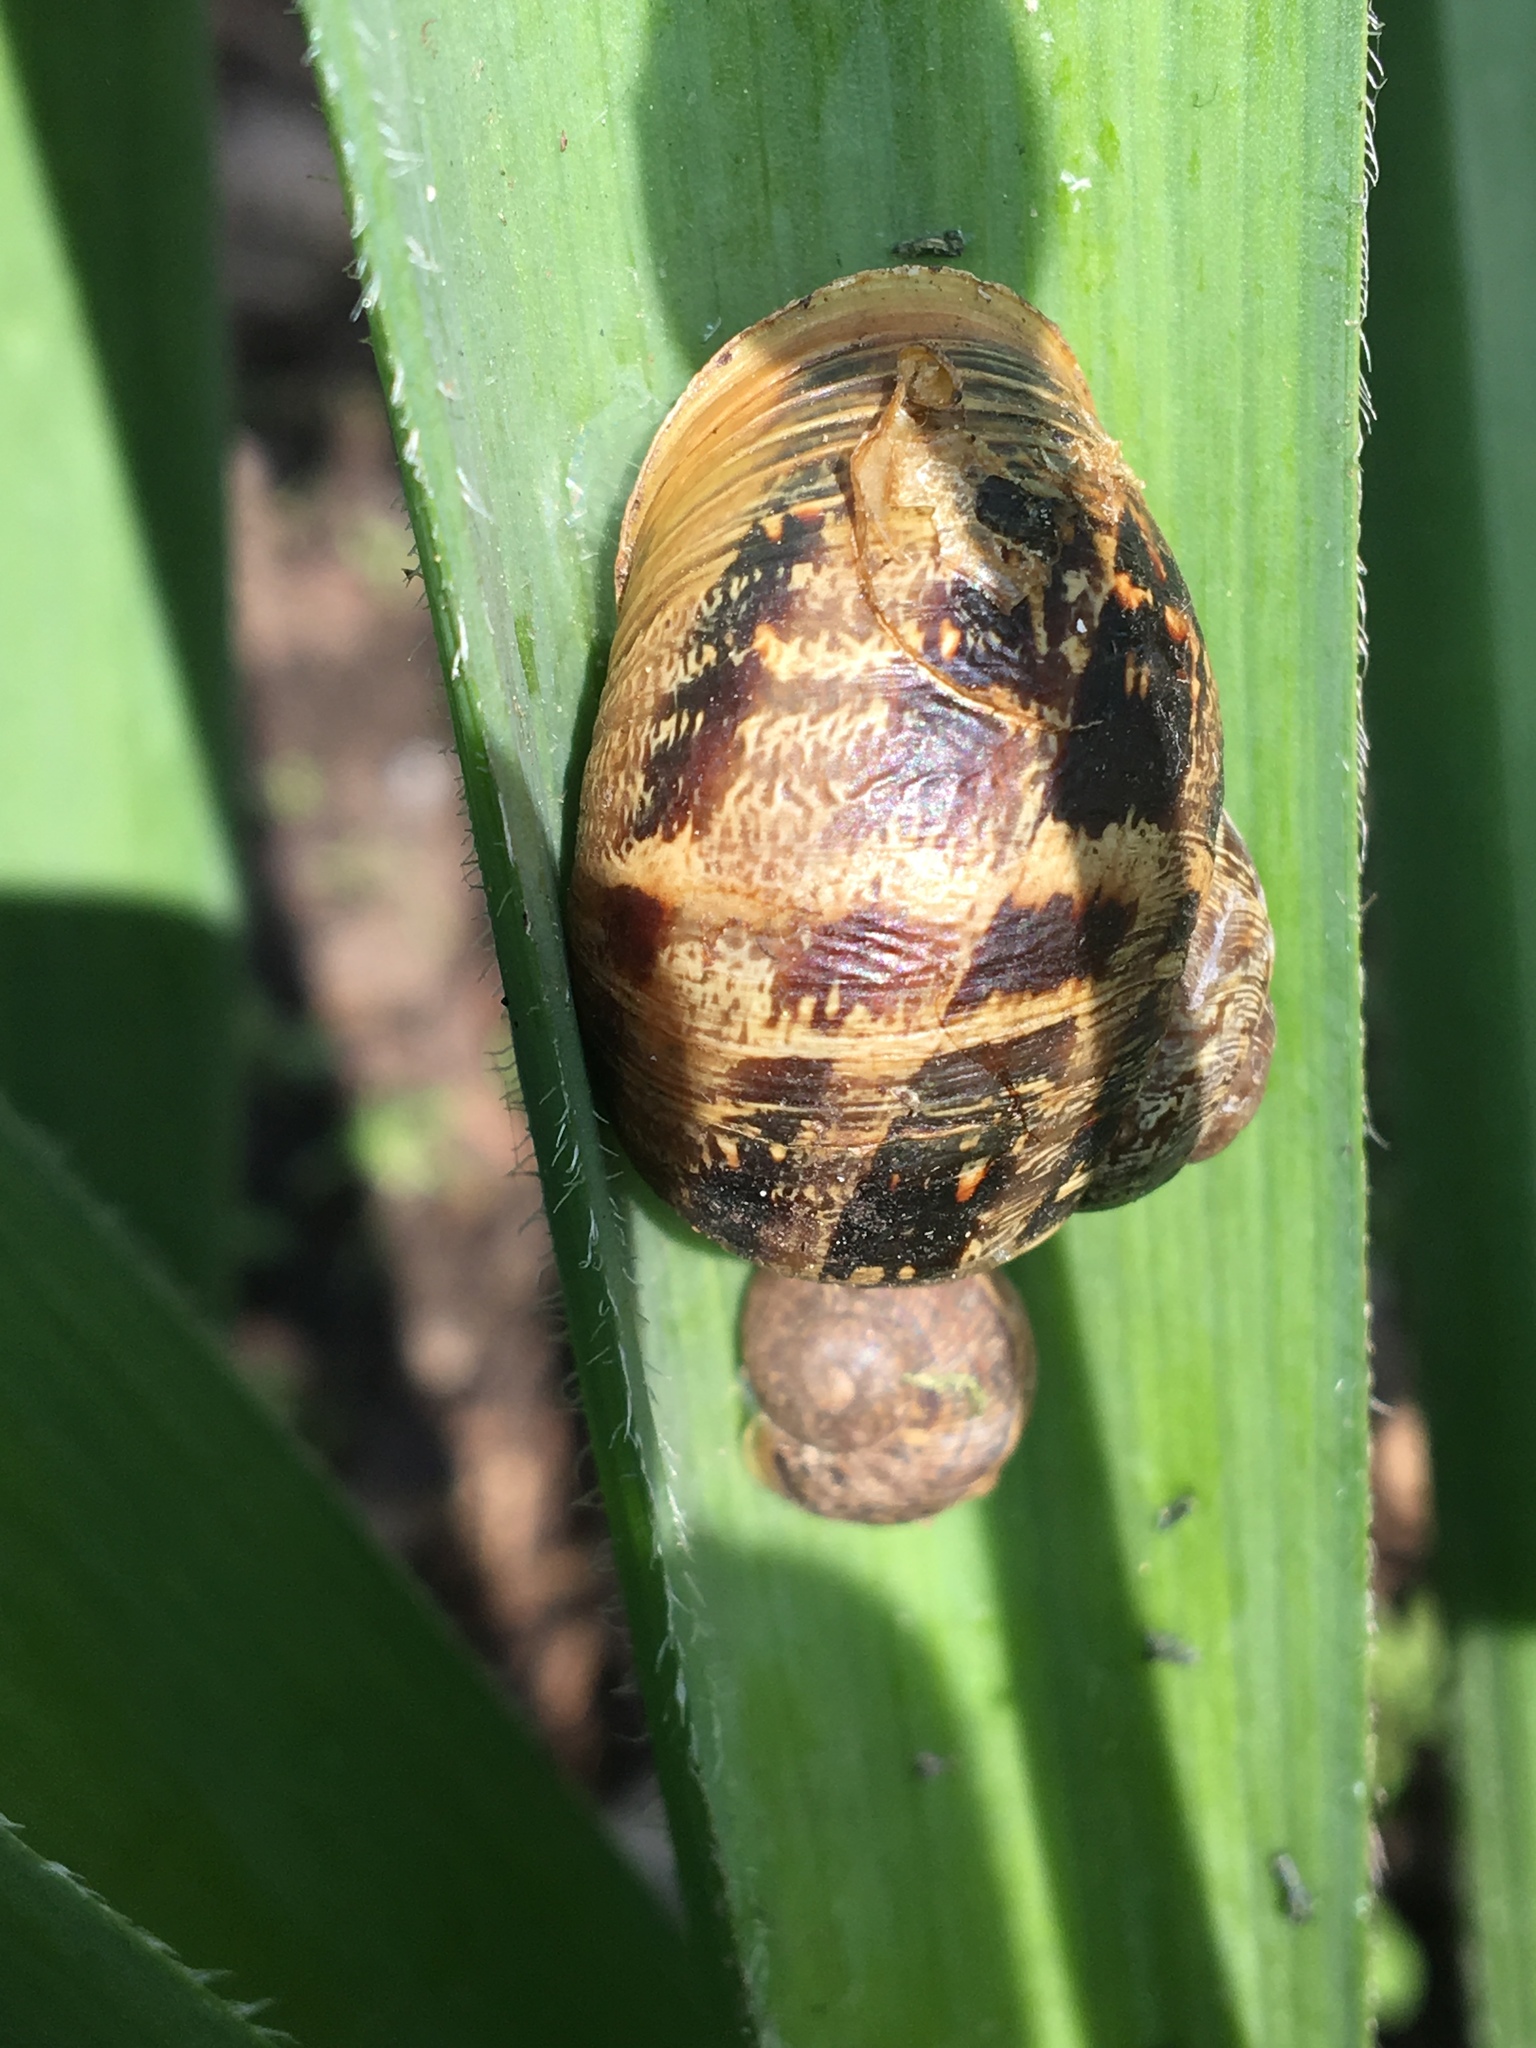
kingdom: Animalia
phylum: Mollusca
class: Gastropoda
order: Stylommatophora
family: Helicidae
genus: Cornu
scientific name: Cornu aspersum
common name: Brown garden snail
